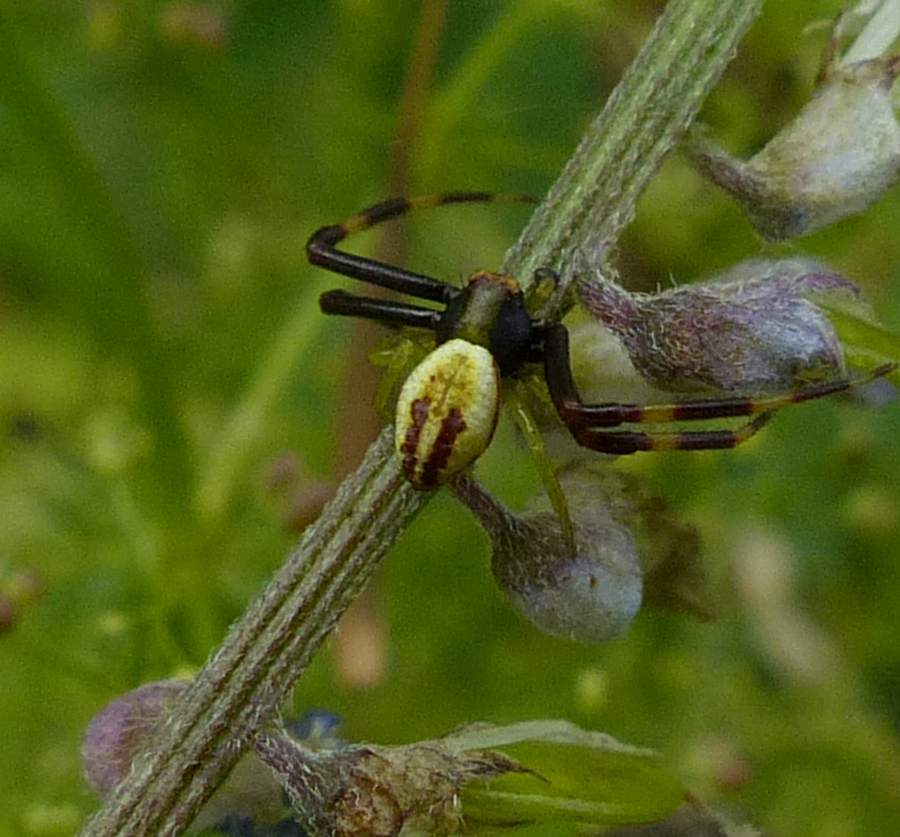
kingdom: Animalia
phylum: Arthropoda
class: Arachnida
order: Araneae
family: Thomisidae
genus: Misumena
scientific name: Misumena vatia
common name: Goldenrod crab spider
